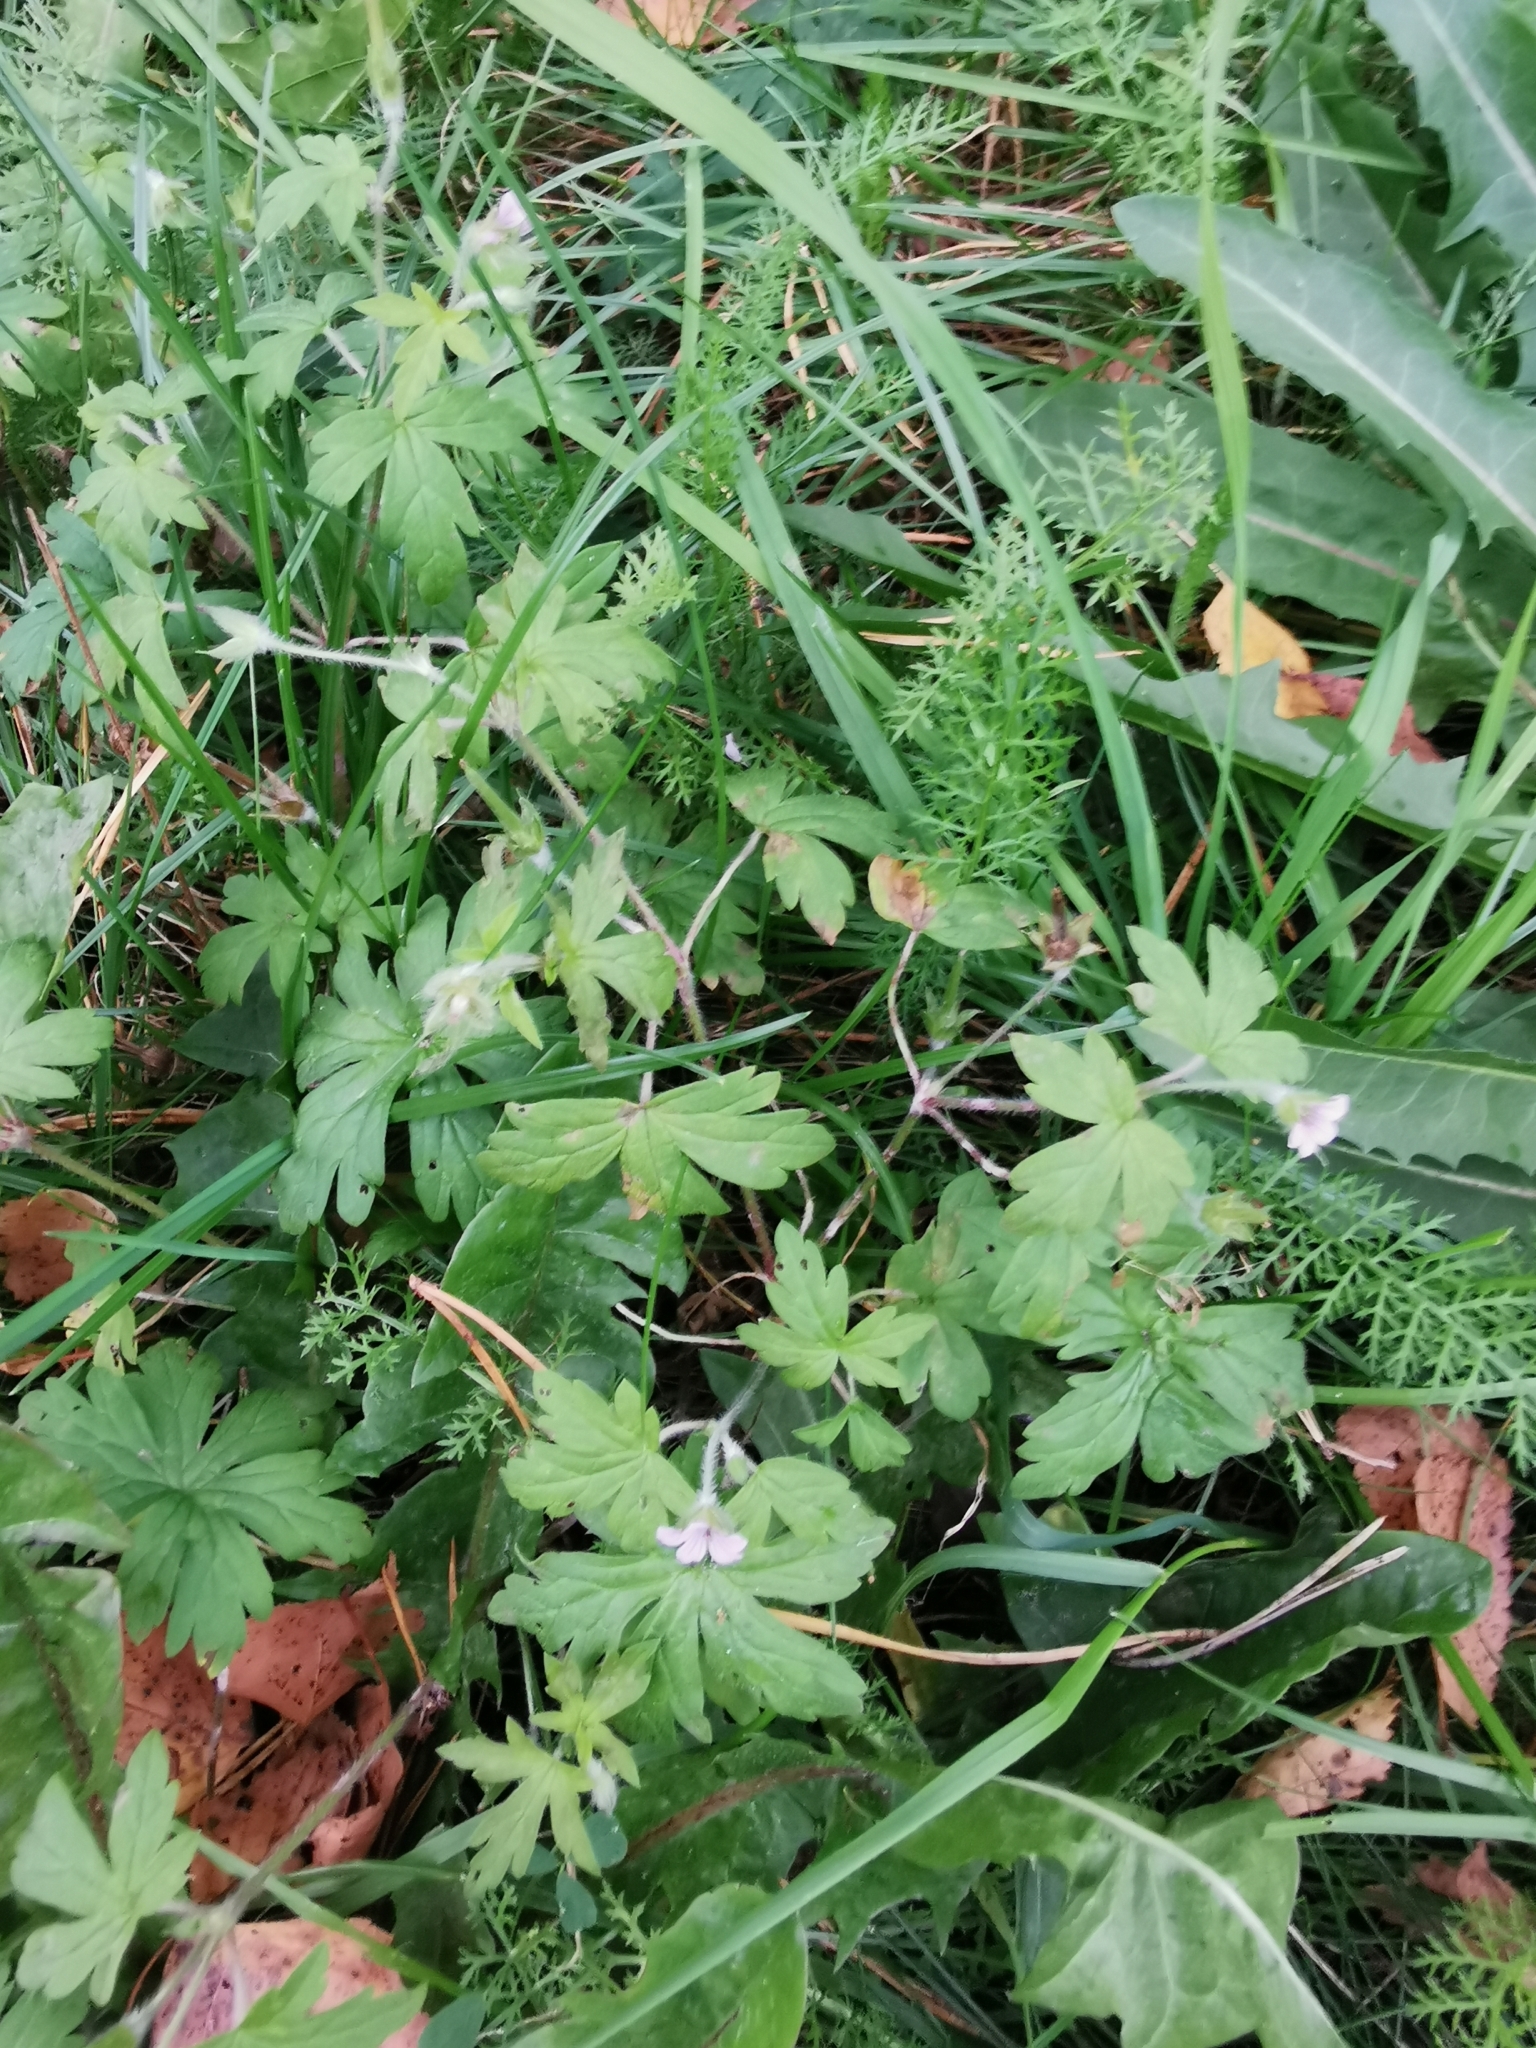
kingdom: Plantae
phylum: Tracheophyta
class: Magnoliopsida
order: Geraniales
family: Geraniaceae
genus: Geranium
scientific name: Geranium sibiricum
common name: Siberian crane's-bill
